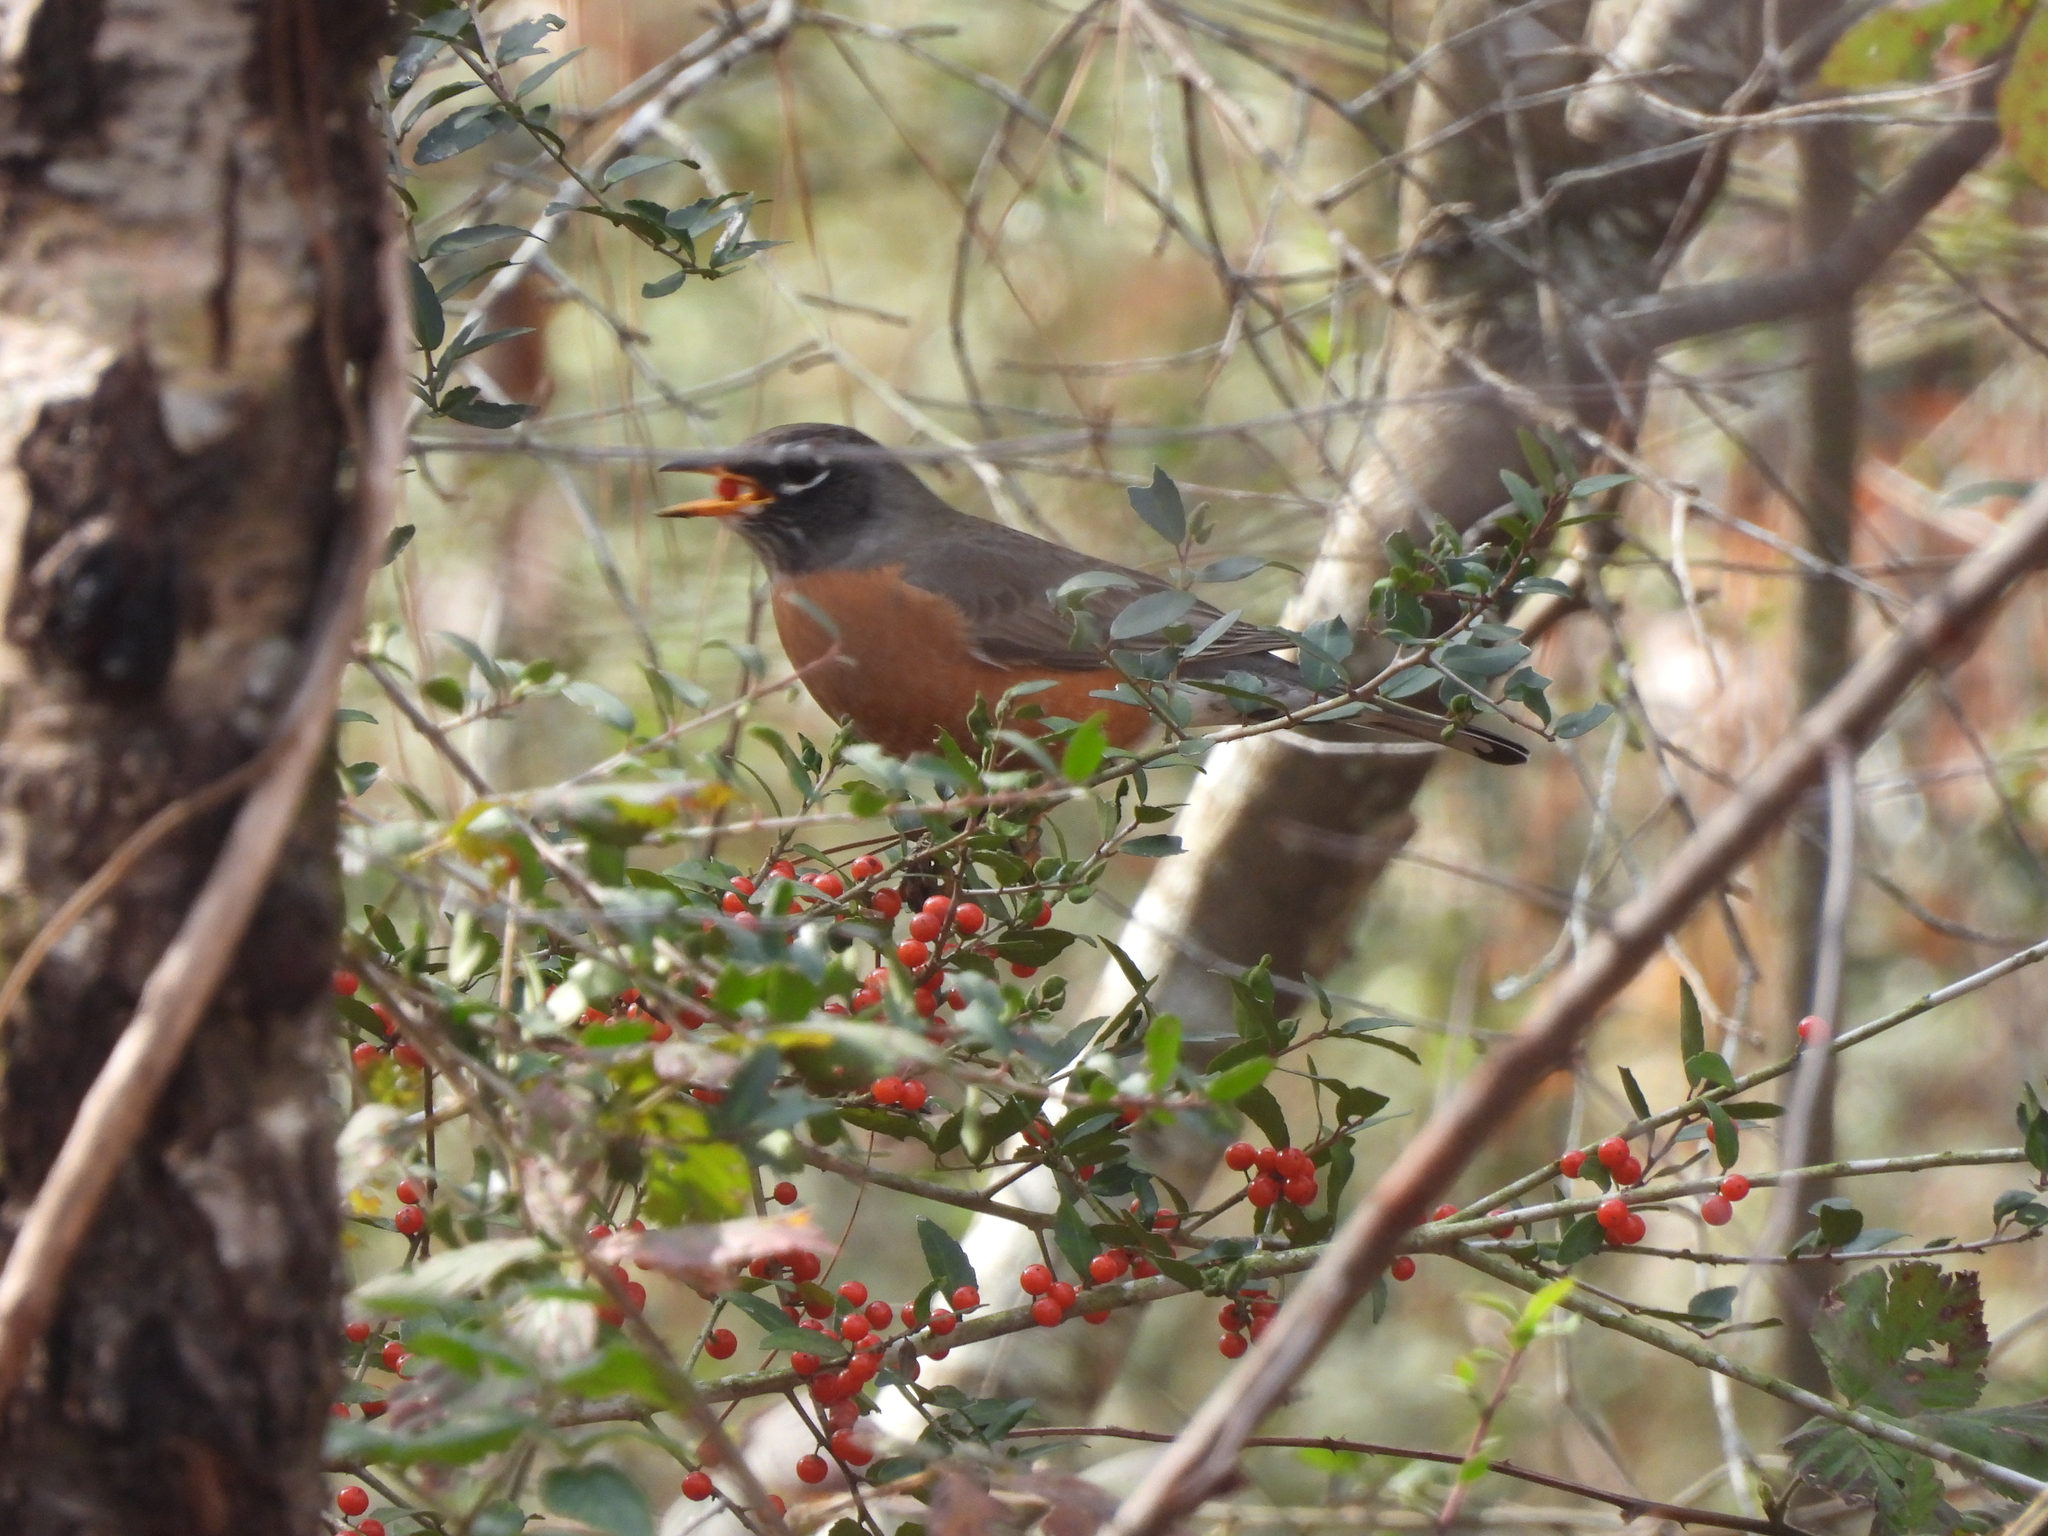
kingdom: Plantae
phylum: Tracheophyta
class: Magnoliopsida
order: Aquifoliales
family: Aquifoliaceae
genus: Ilex
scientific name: Ilex vomitoria
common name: Yaupon holly
